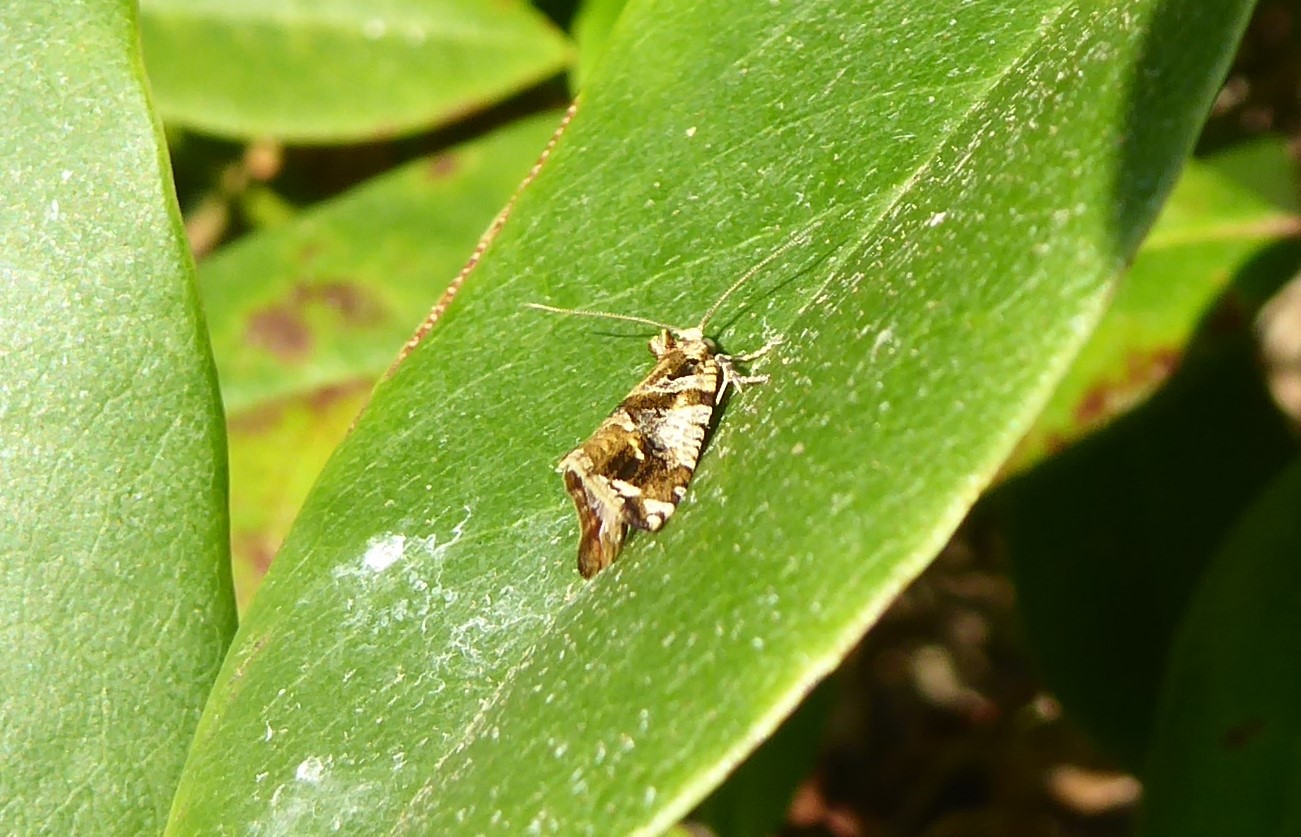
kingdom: Animalia
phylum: Arthropoda
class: Insecta
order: Lepidoptera
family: Tortricidae
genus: Pyrgotis
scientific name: Pyrgotis plagiatana
